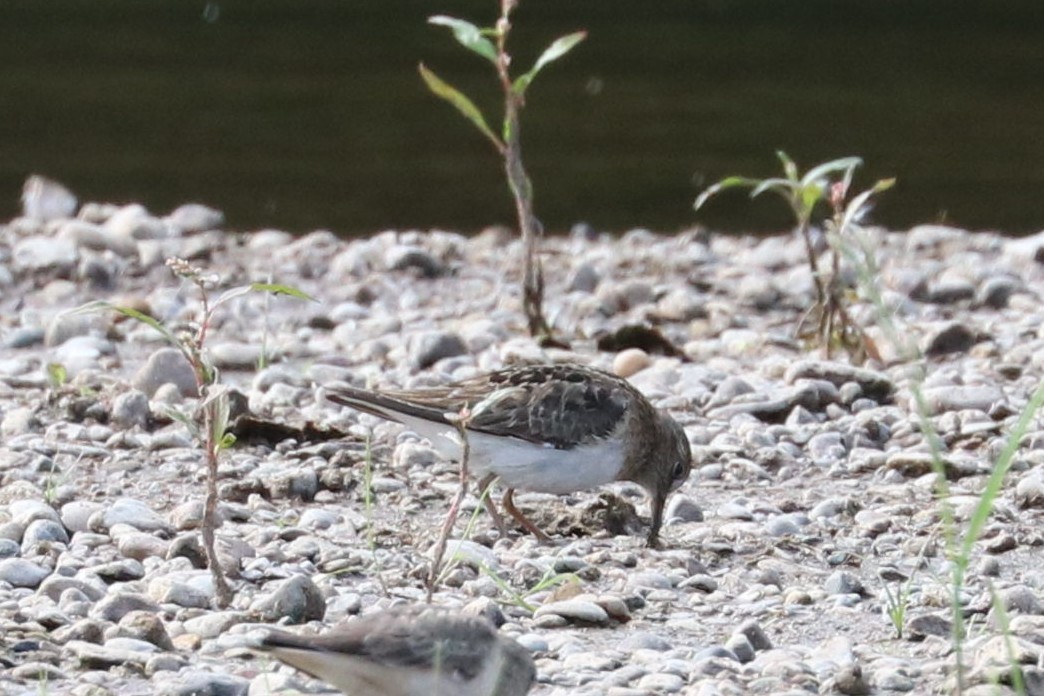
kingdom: Animalia
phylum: Chordata
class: Aves
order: Charadriiformes
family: Scolopacidae
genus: Calidris
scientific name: Calidris temminckii
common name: Temminck's stint
